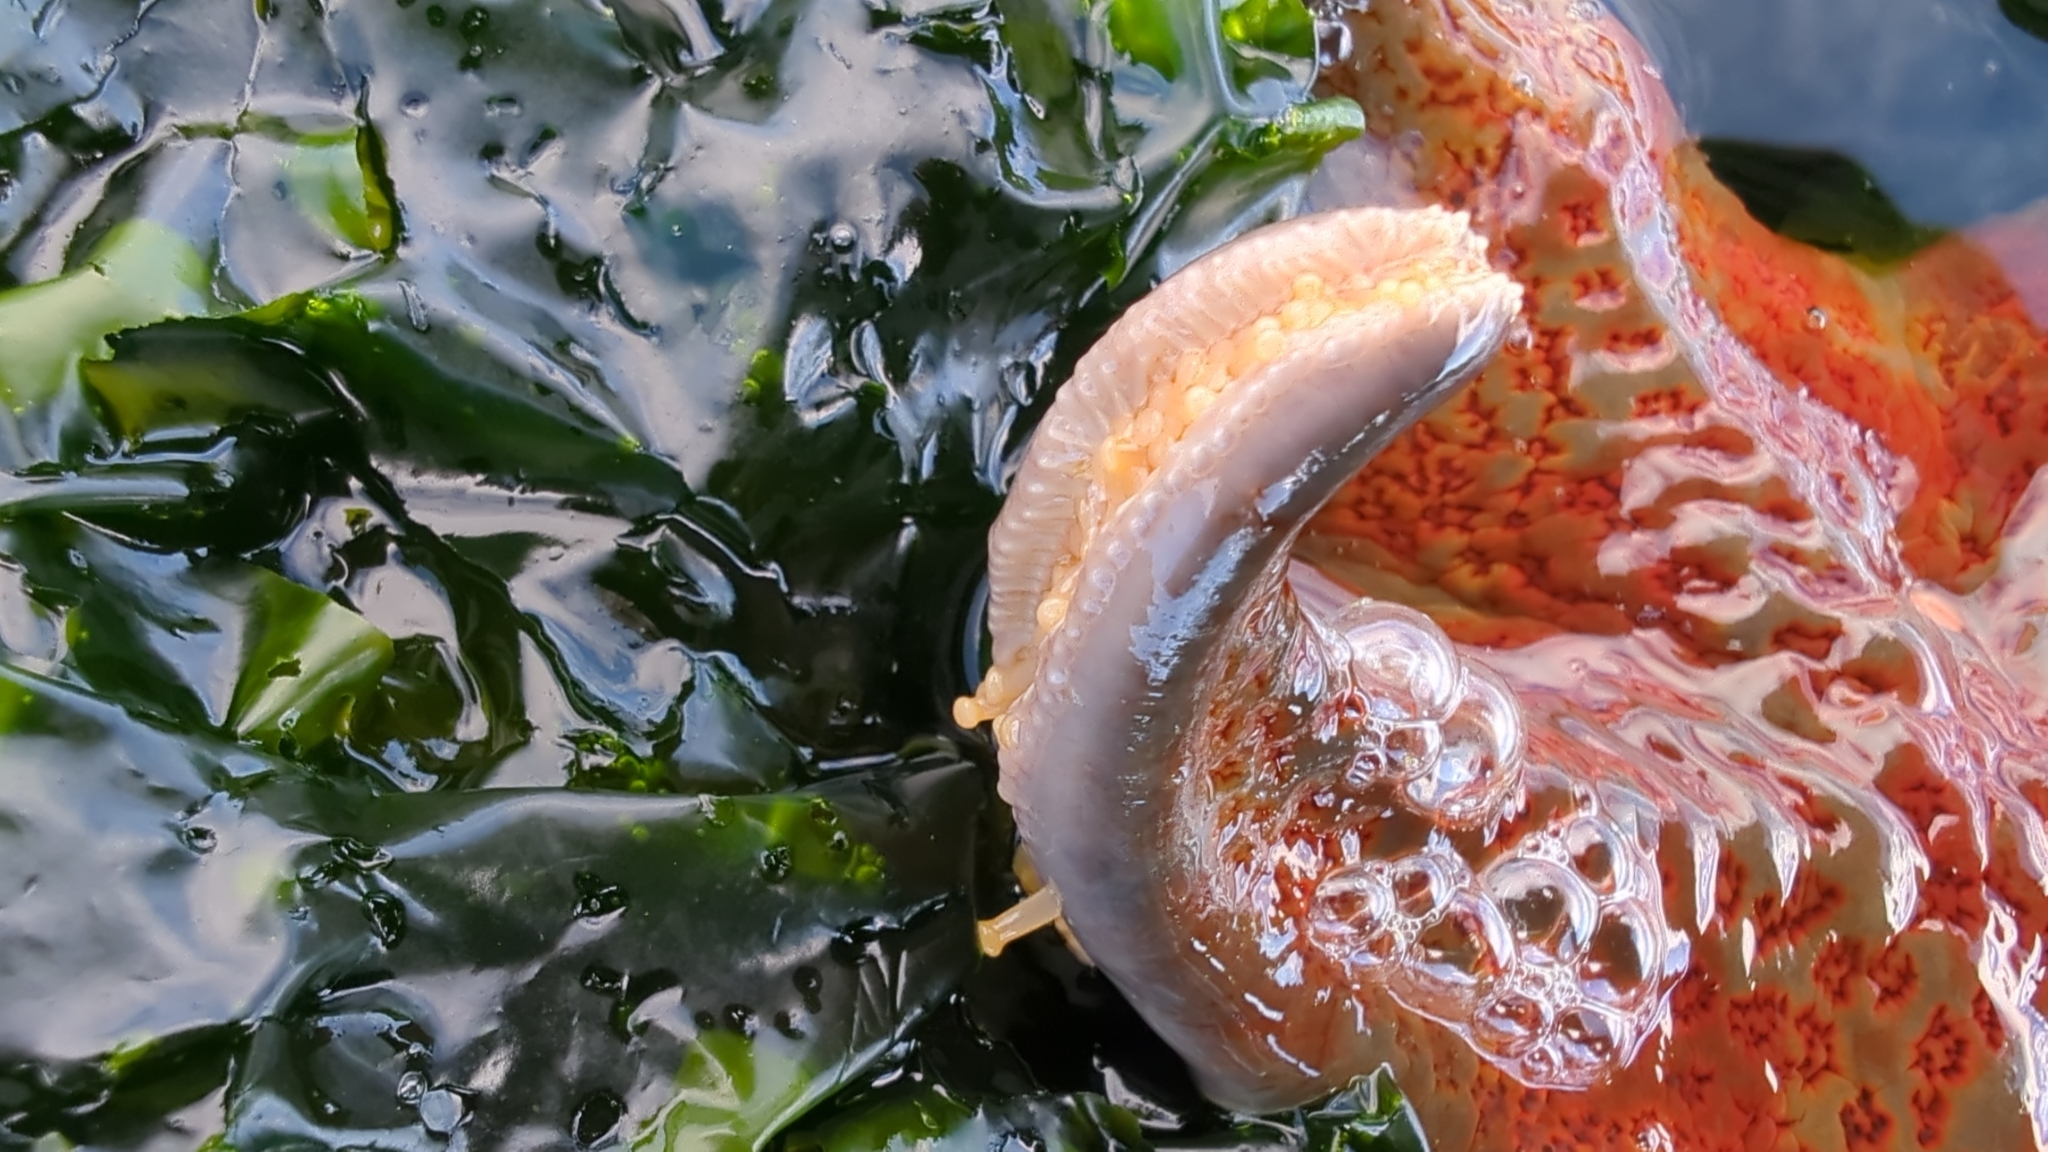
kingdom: Animalia
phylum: Echinodermata
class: Asteroidea
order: Valvatida
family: Asteropseidae
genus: Dermasterias
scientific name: Dermasterias imbricata
